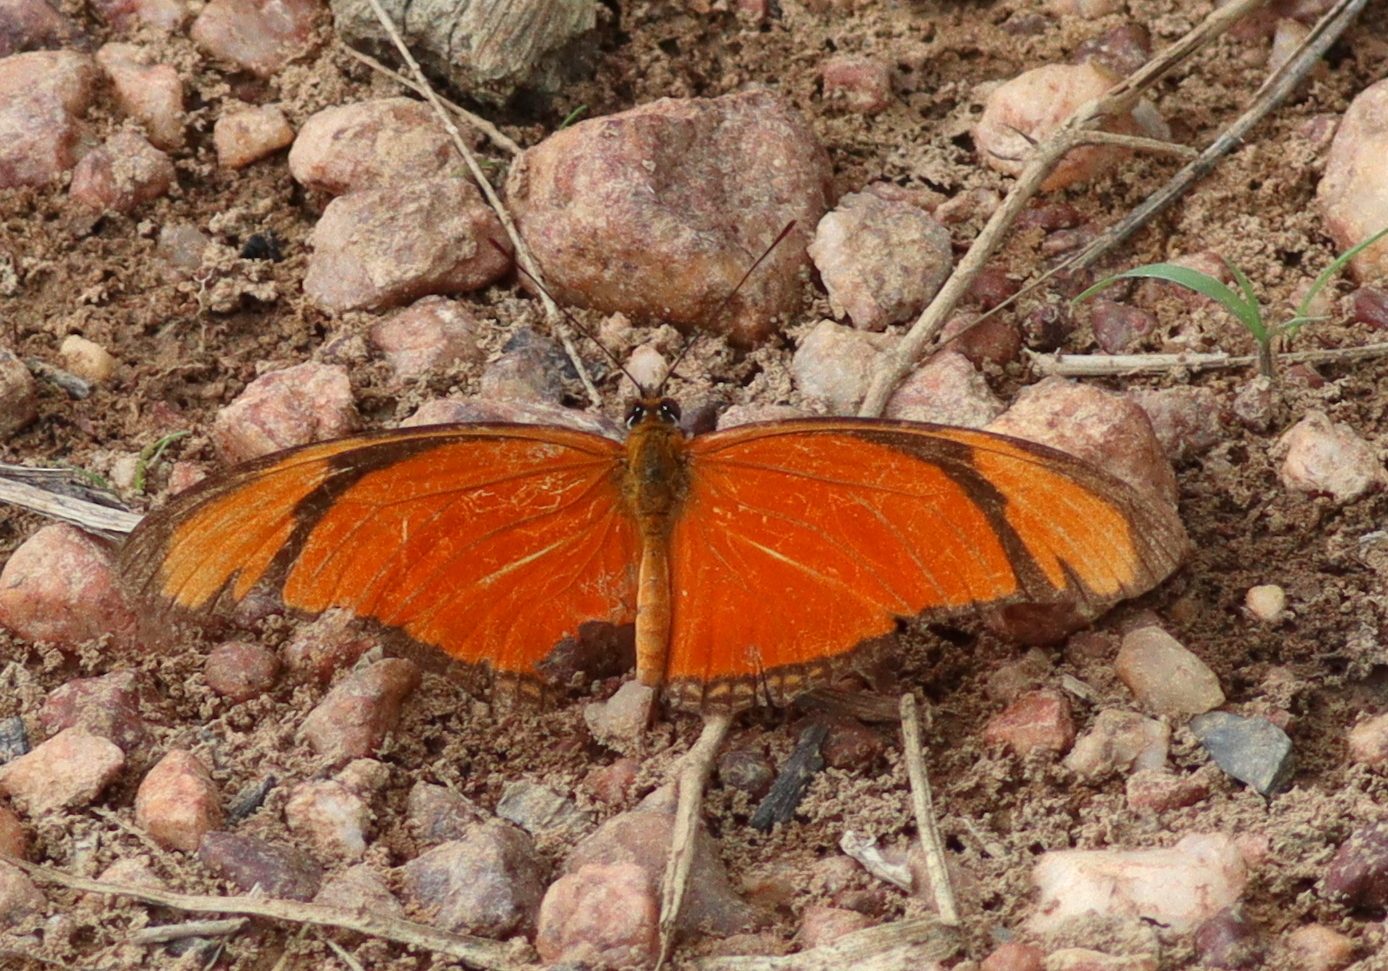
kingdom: Animalia
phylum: Arthropoda
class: Insecta
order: Lepidoptera
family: Nymphalidae
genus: Dryas
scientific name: Dryas iulia
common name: Flambeau
